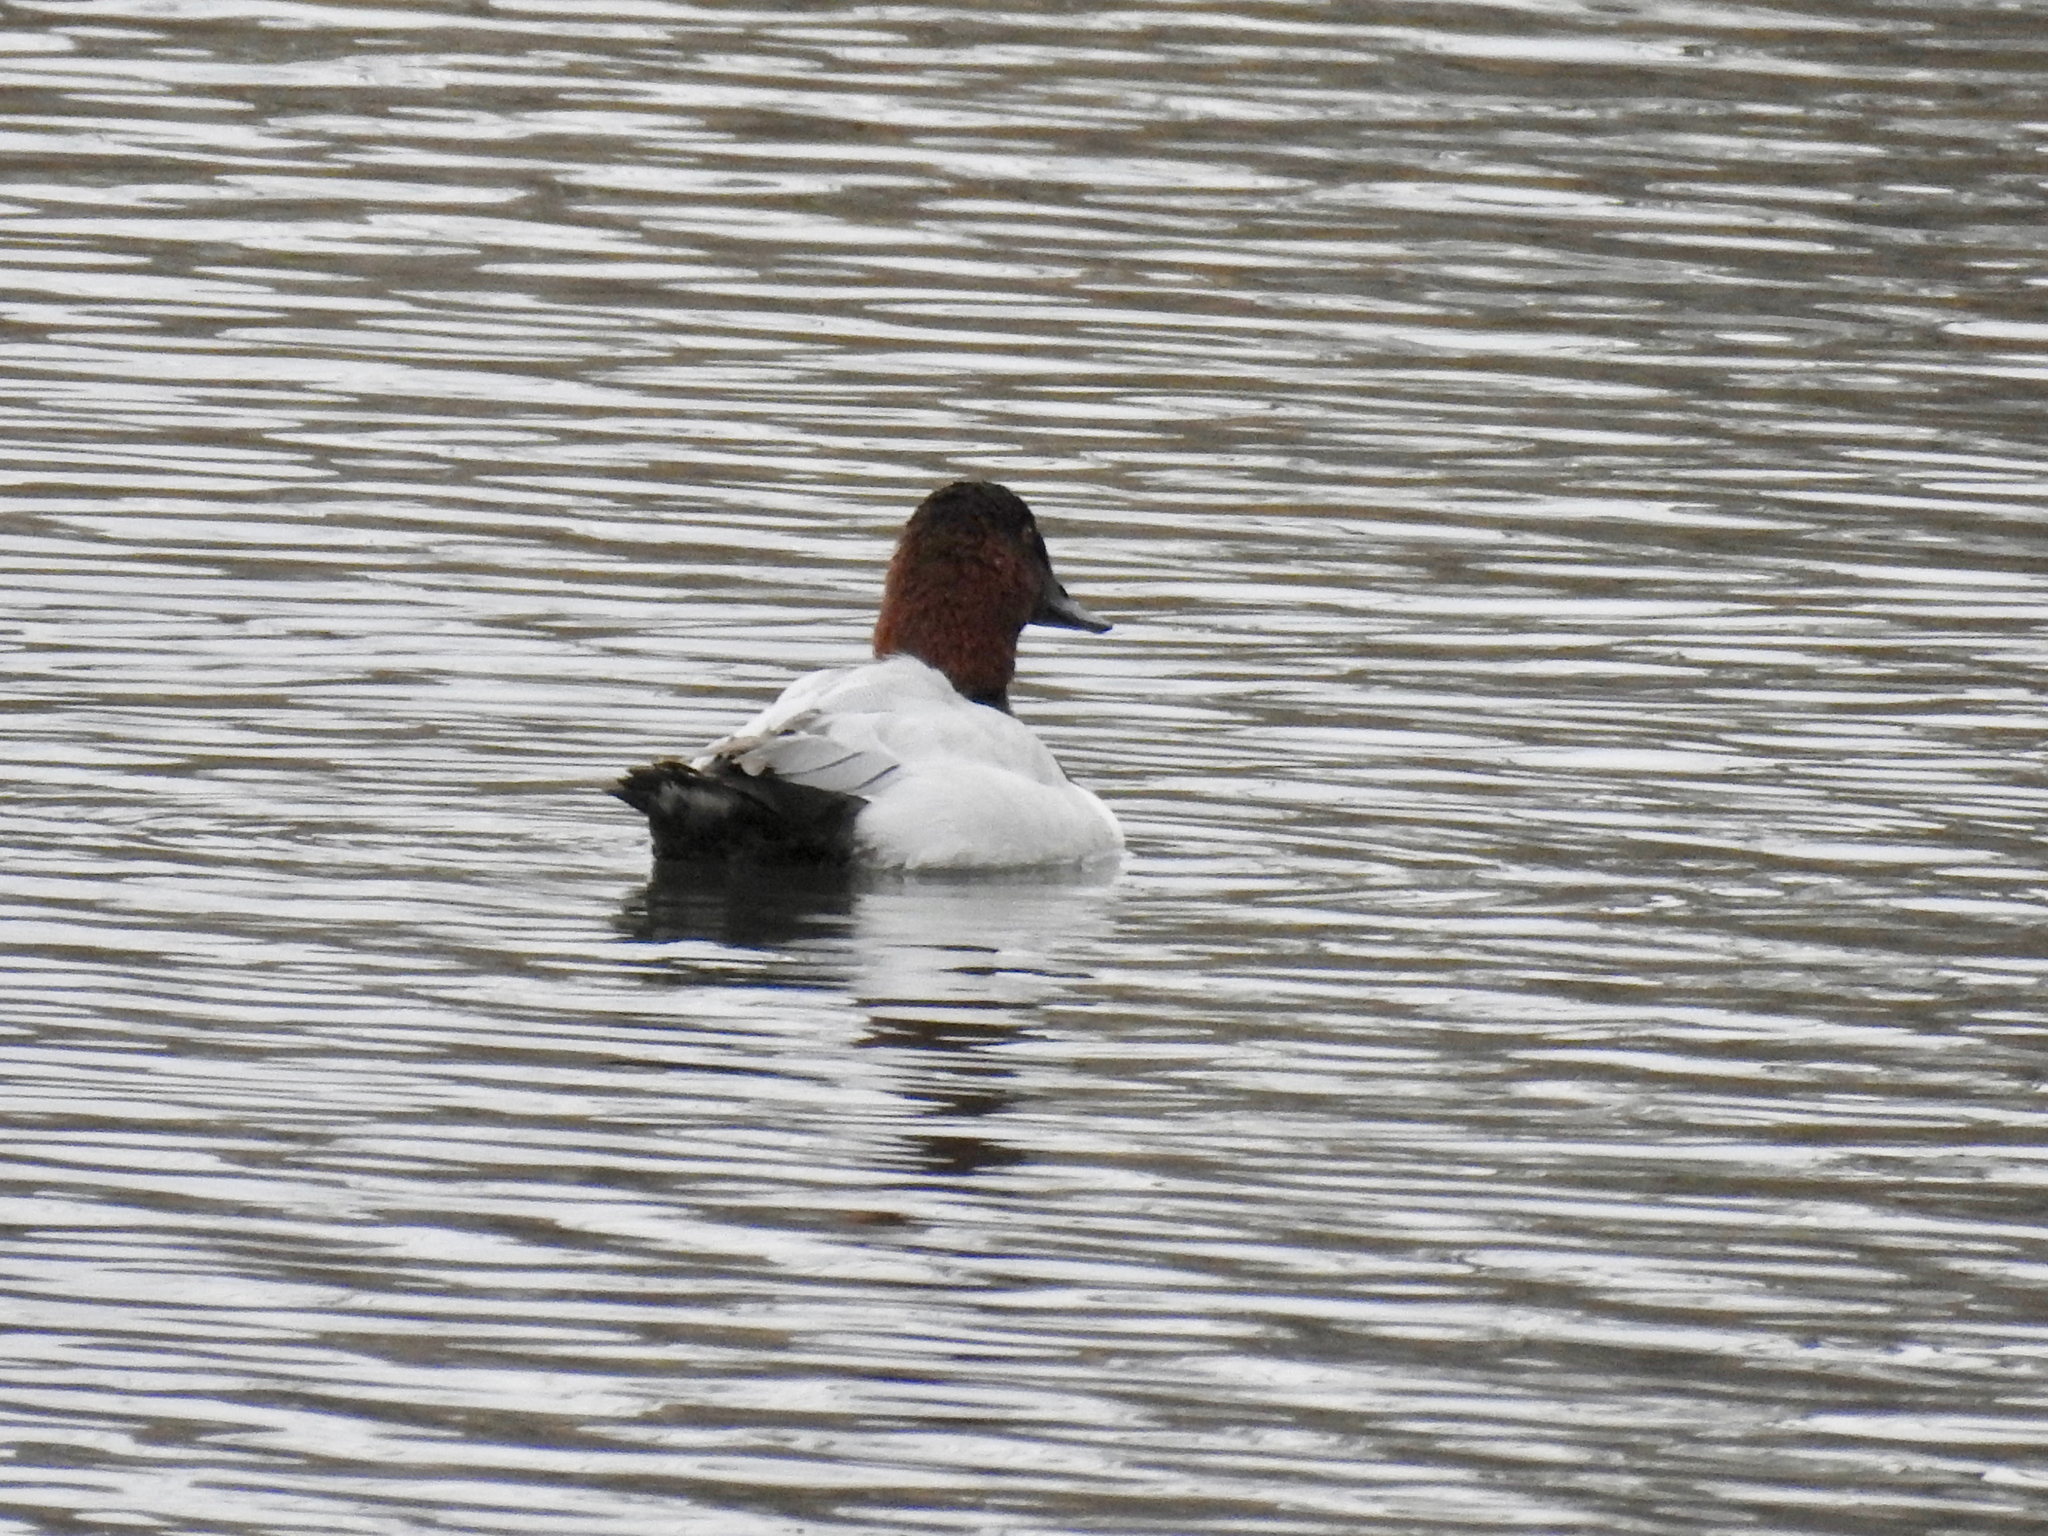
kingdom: Animalia
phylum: Chordata
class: Aves
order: Anseriformes
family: Anatidae
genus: Aythya
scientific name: Aythya valisineria
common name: Canvasback
